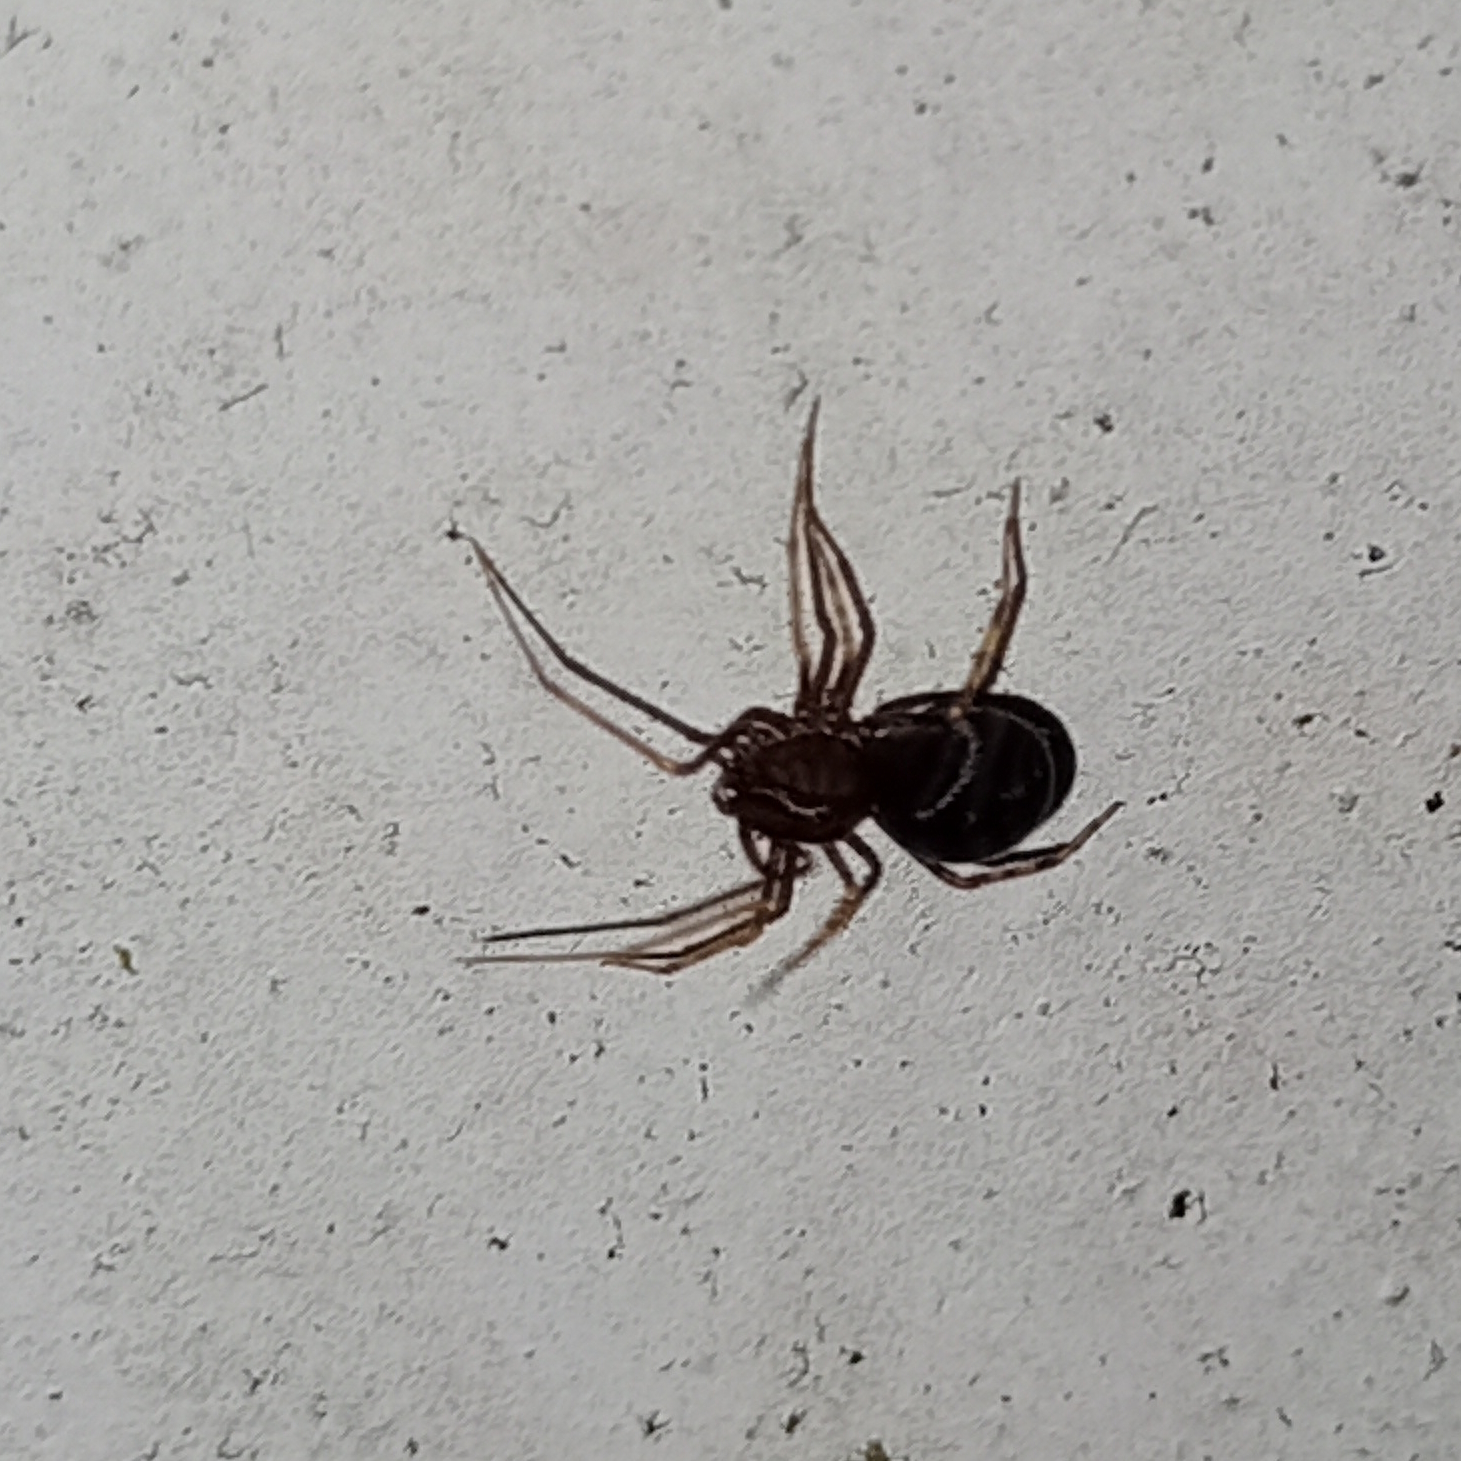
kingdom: Animalia
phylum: Arthropoda
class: Arachnida
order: Araneae
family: Scytodidae
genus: Scytodes
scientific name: Scytodes fusca
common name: Spitting spiders
